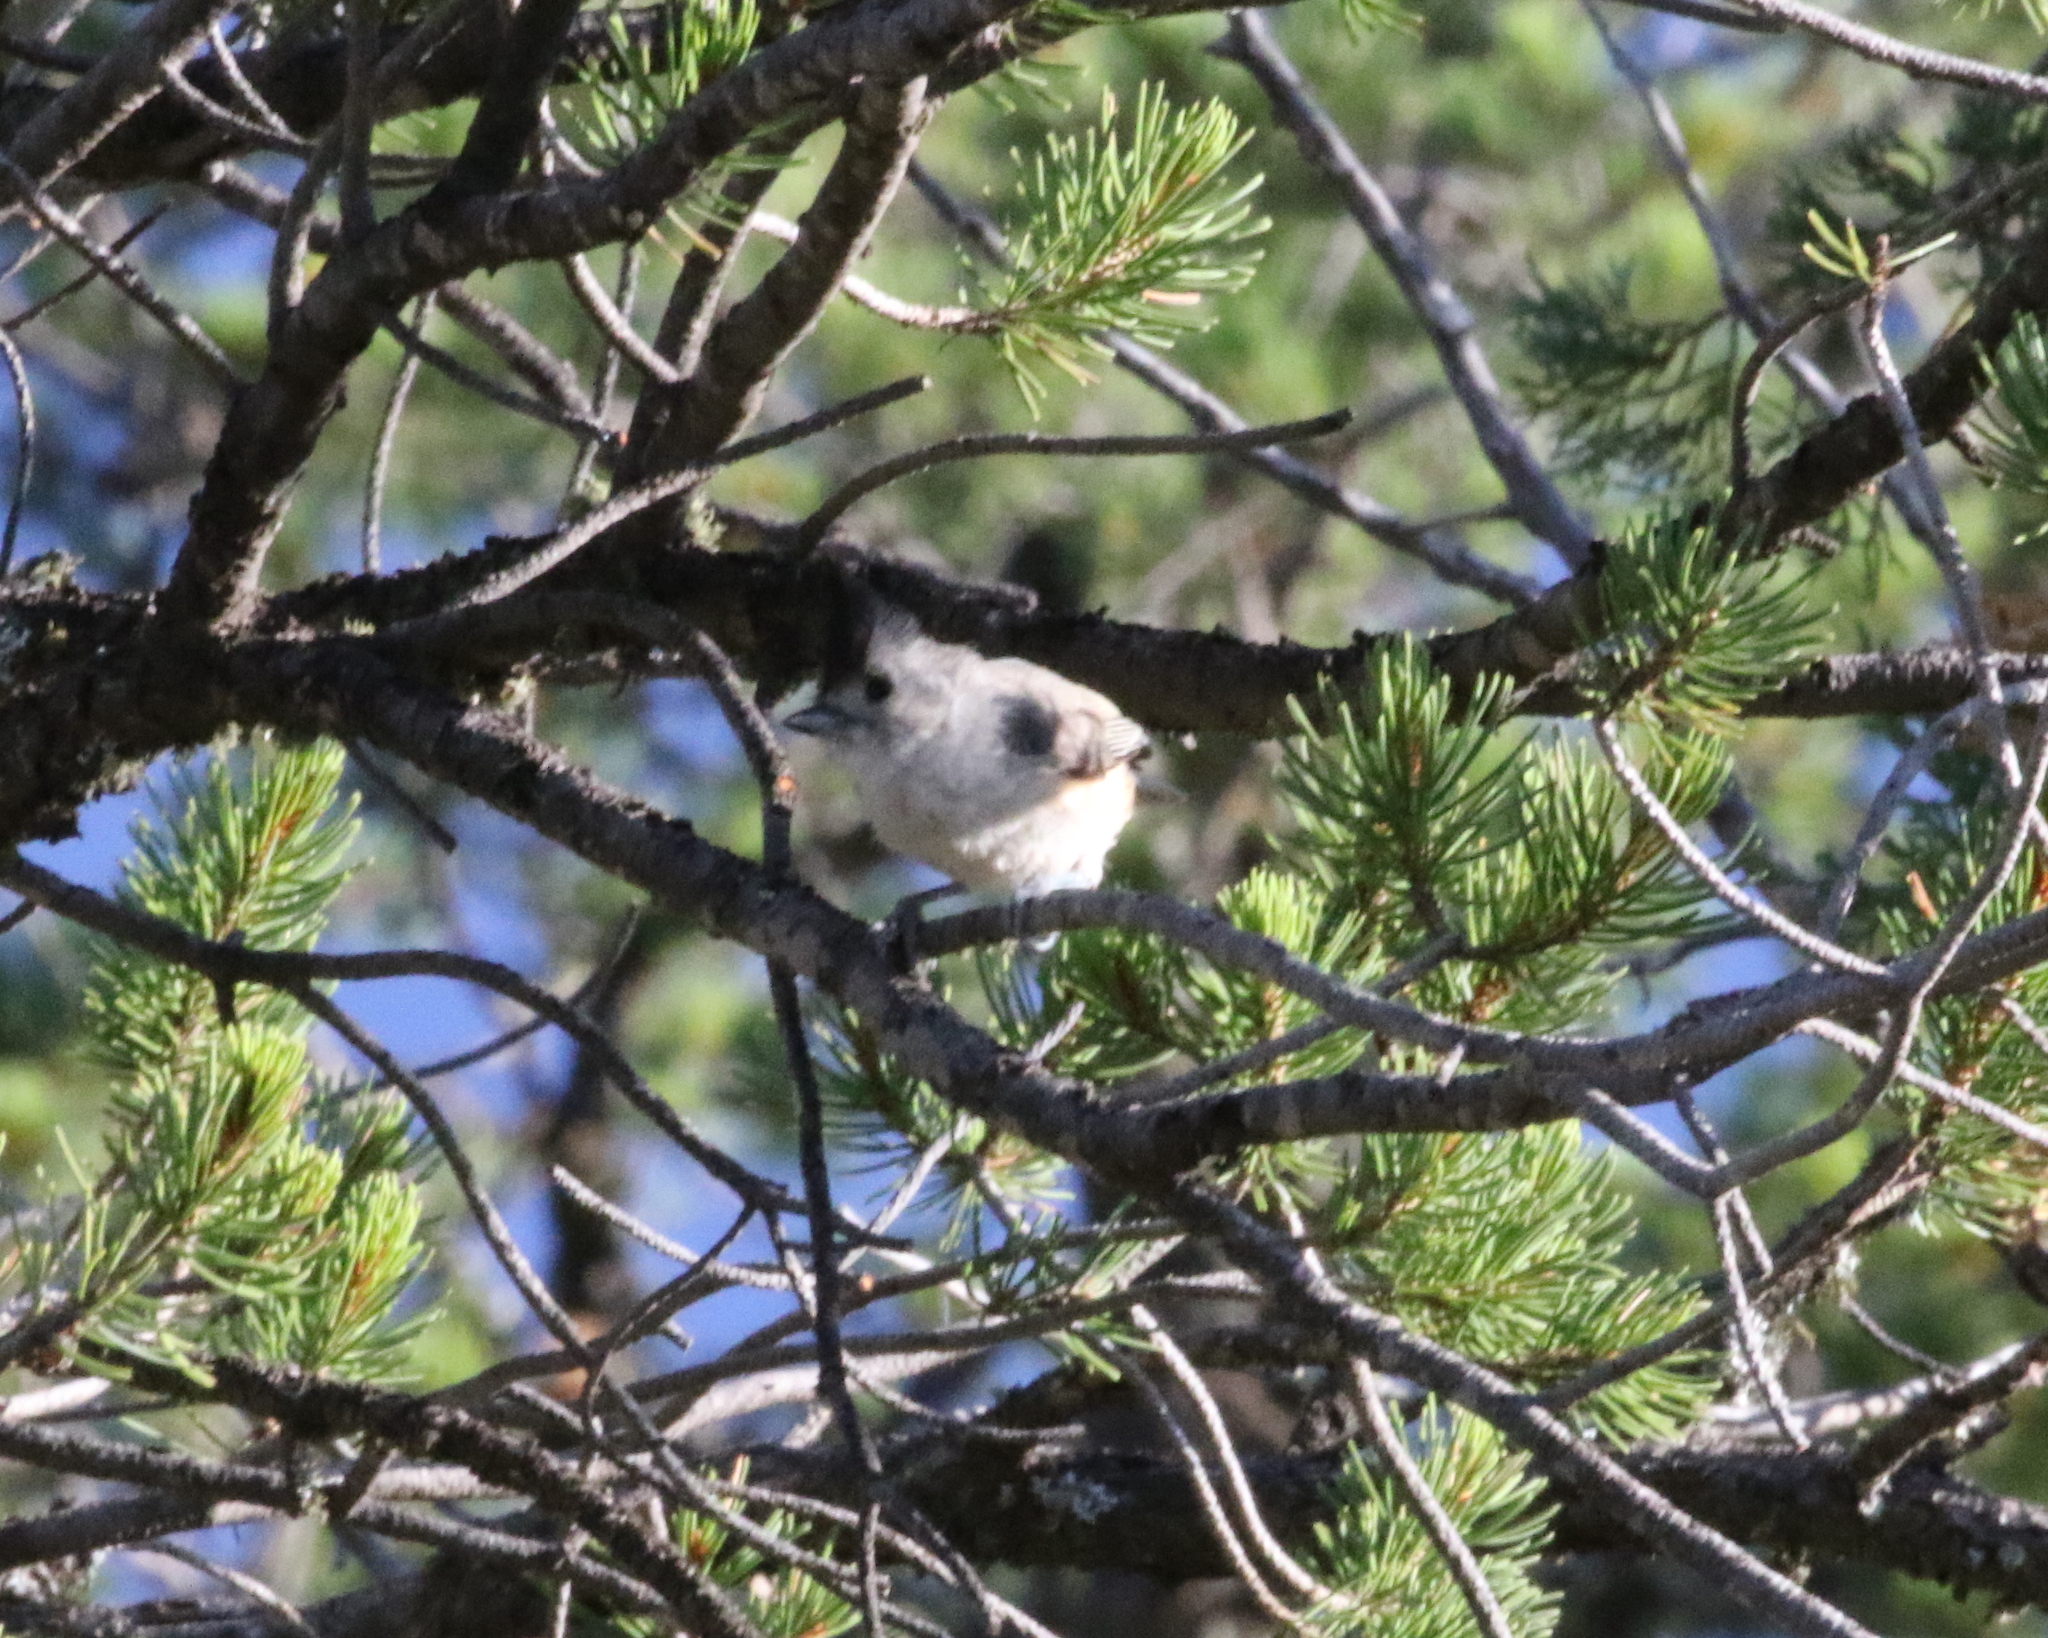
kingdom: Animalia
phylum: Chordata
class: Aves
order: Passeriformes
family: Paridae
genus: Baeolophus
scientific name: Baeolophus atricristatus
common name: Black-crested titmouse
